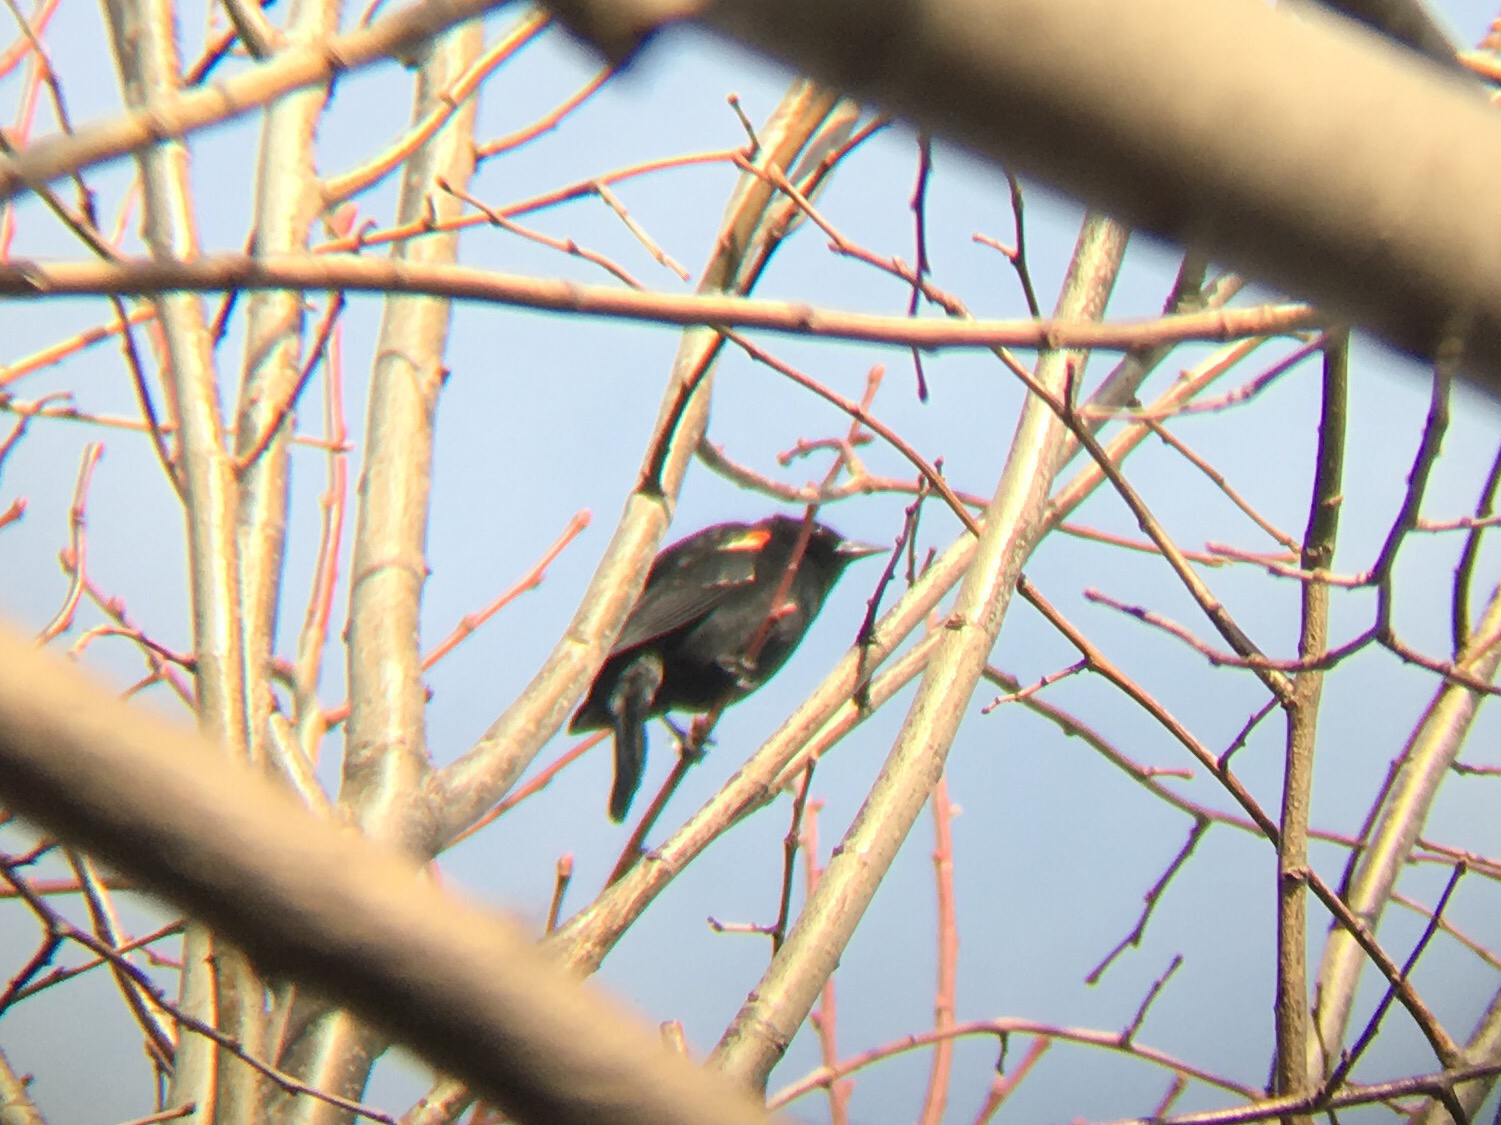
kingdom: Animalia
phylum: Chordata
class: Aves
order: Passeriformes
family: Icteridae
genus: Agelaius
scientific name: Agelaius phoeniceus
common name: Red-winged blackbird
